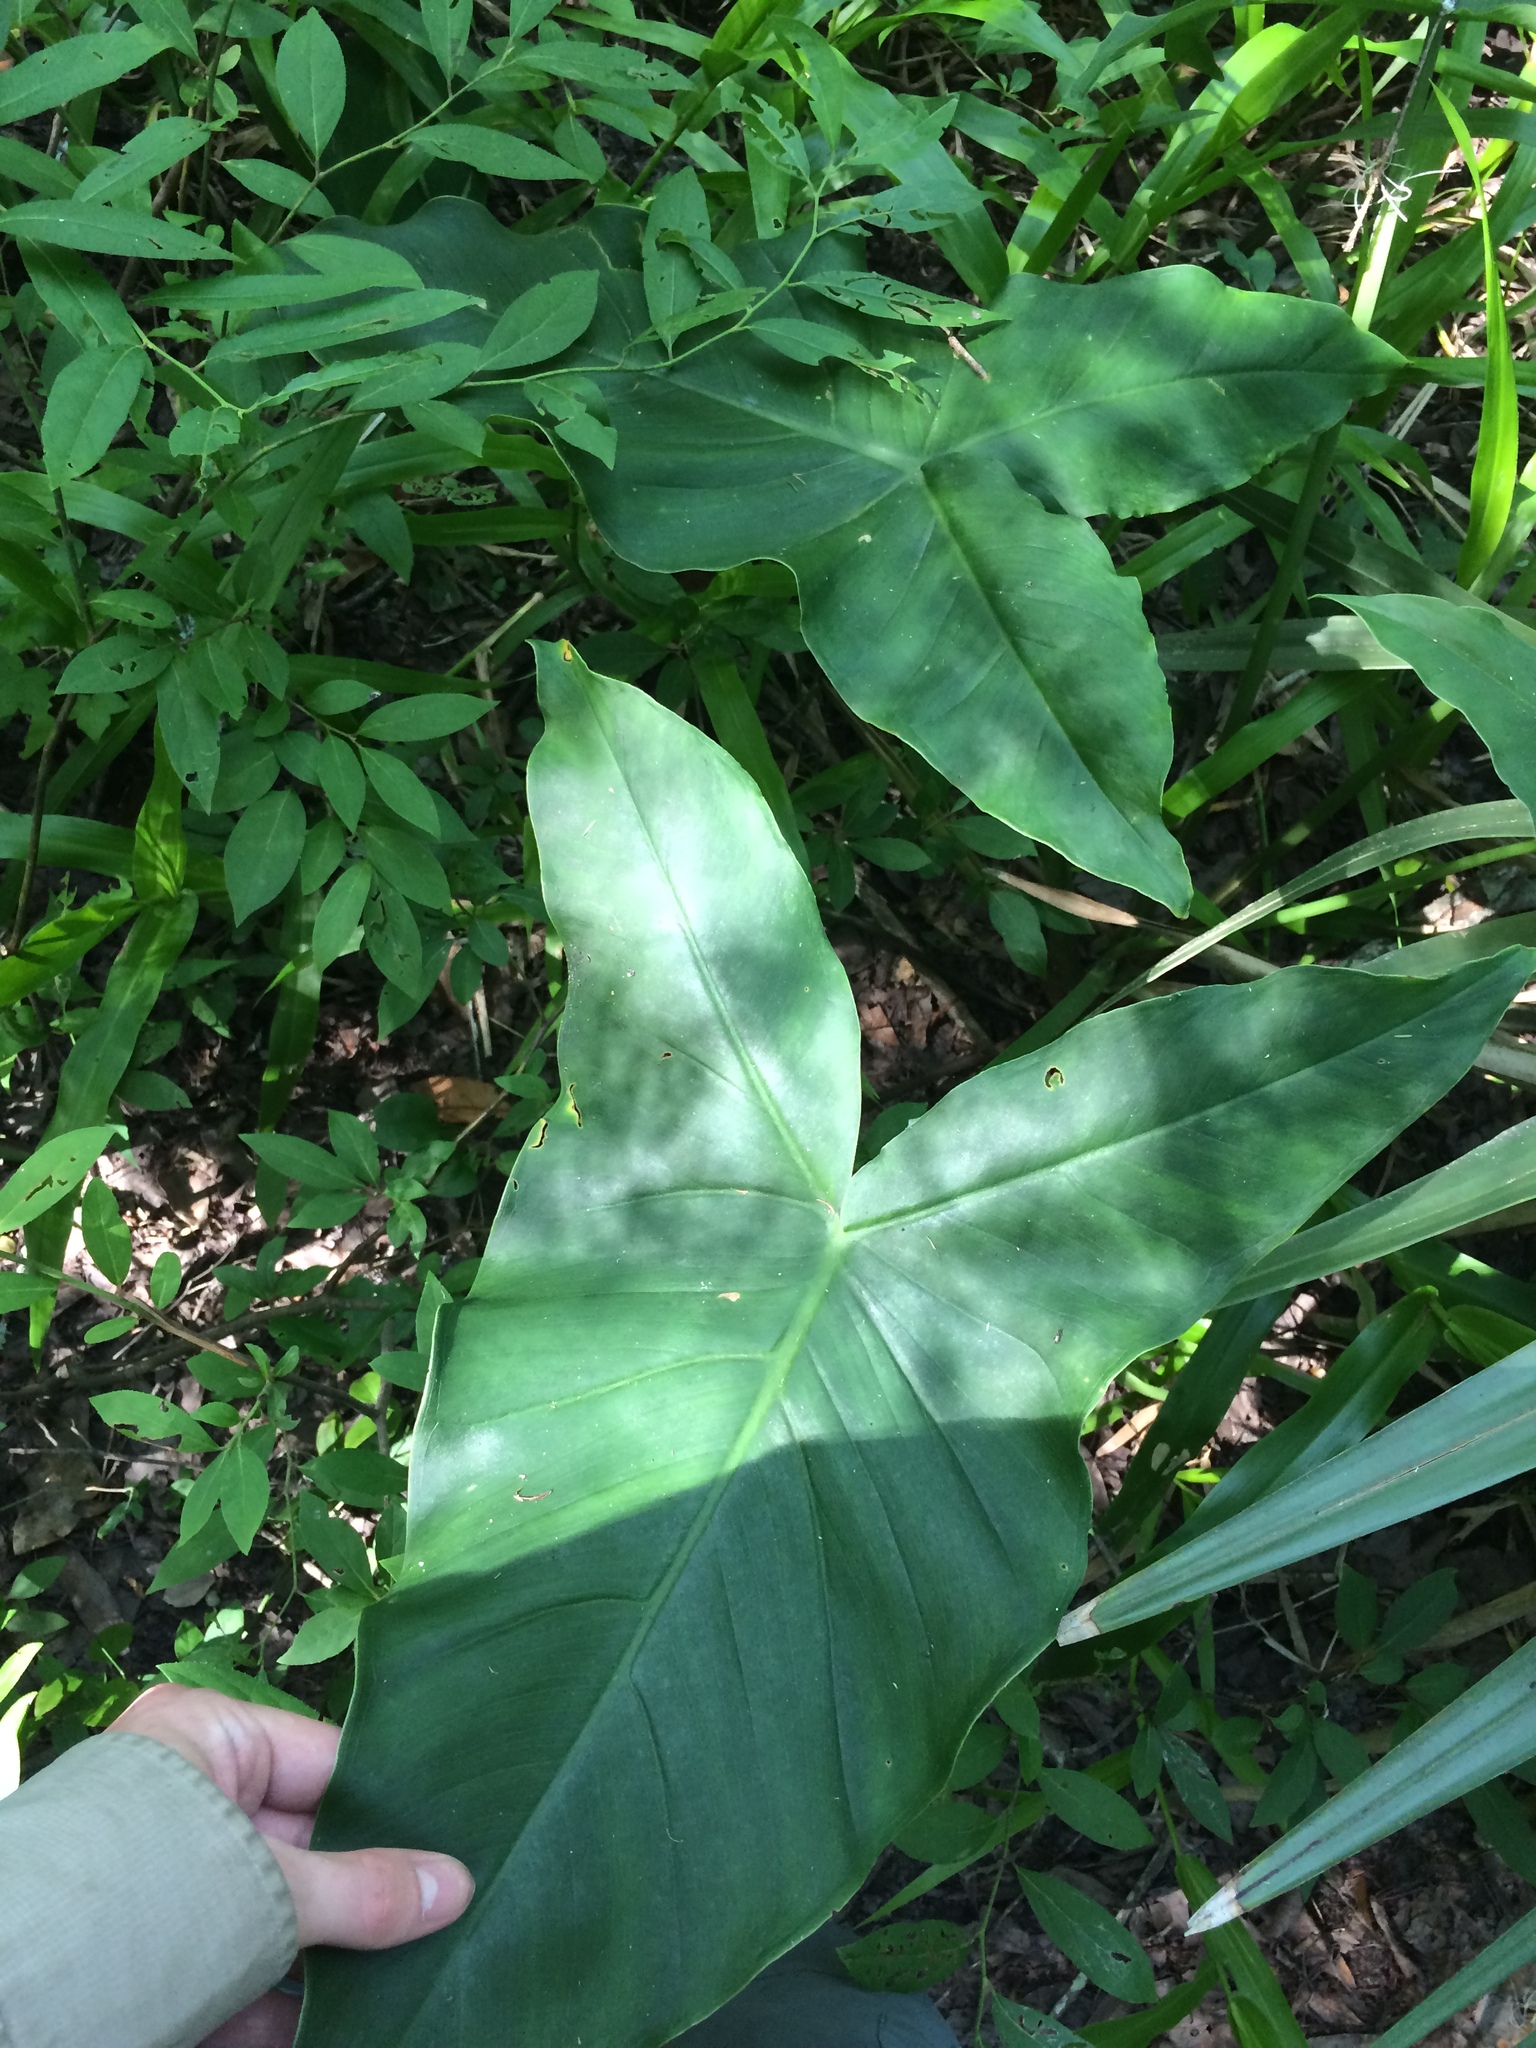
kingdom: Plantae
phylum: Tracheophyta
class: Liliopsida
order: Alismatales
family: Araceae
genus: Peltandra
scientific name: Peltandra virginica
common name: Arrow arum
